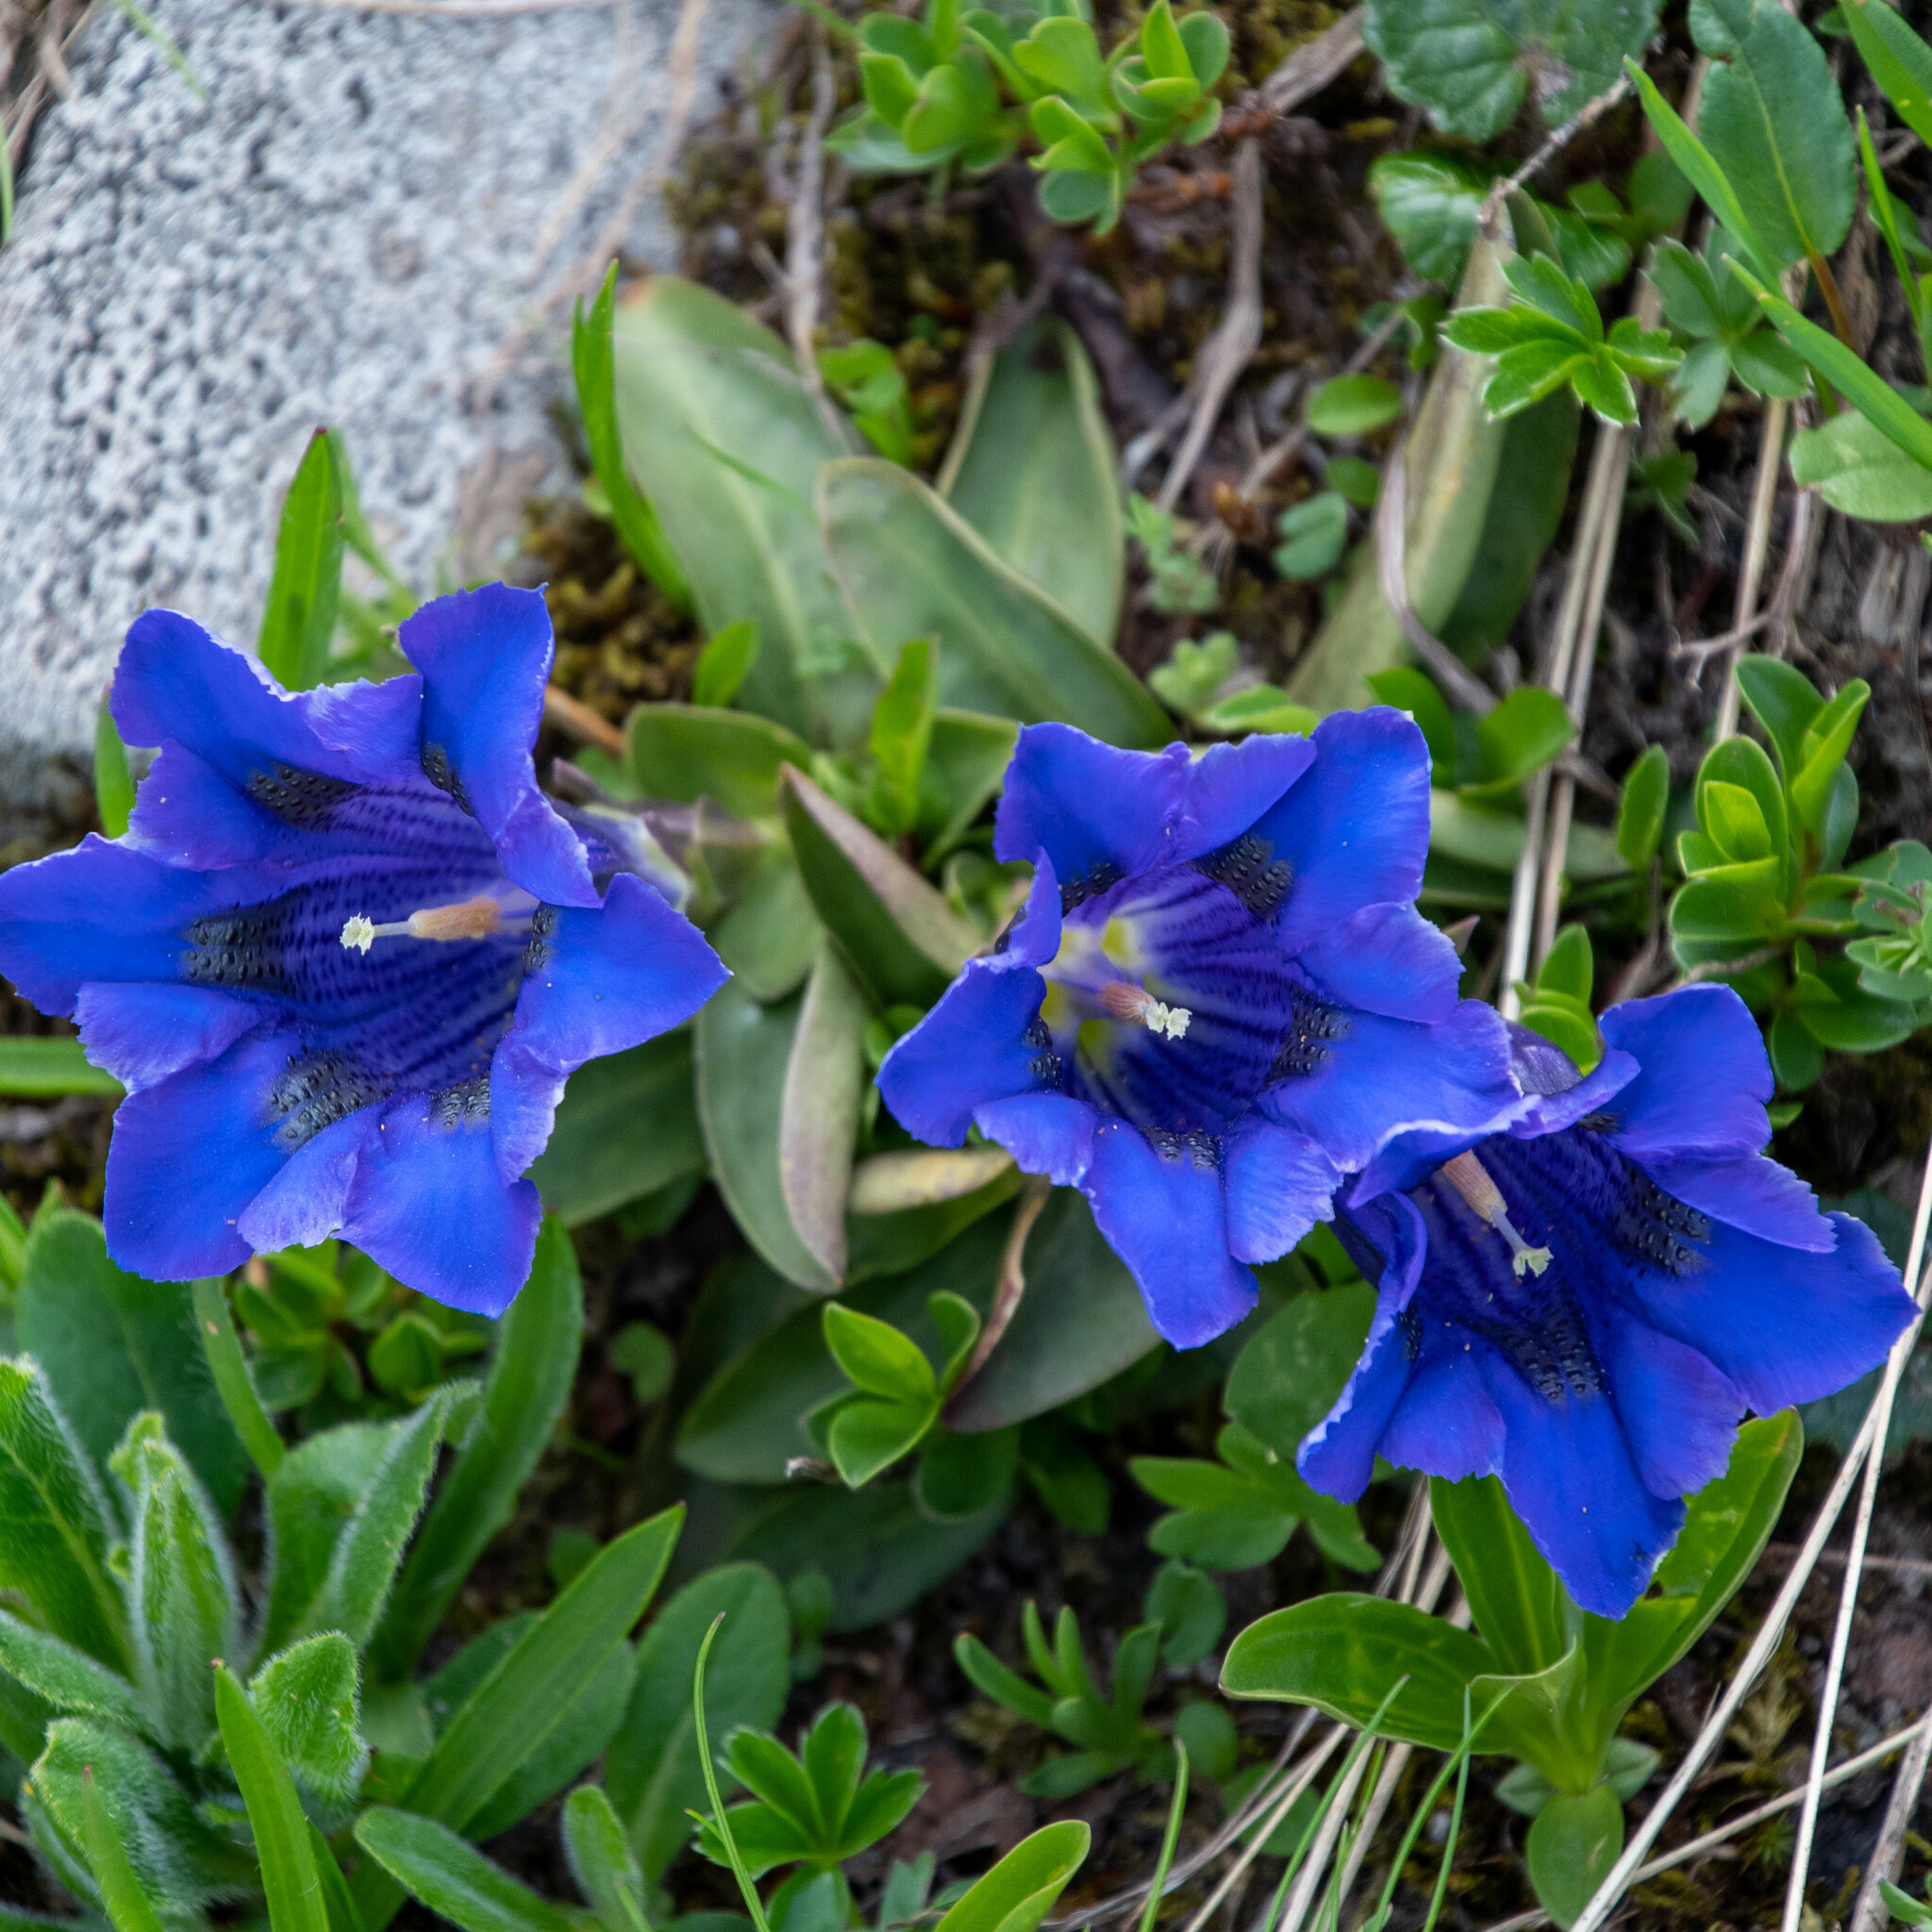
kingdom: Plantae
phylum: Tracheophyta
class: Magnoliopsida
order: Gentianales
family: Gentianaceae
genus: Gentiana
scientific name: Gentiana acaulis
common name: Trumpet gentian
